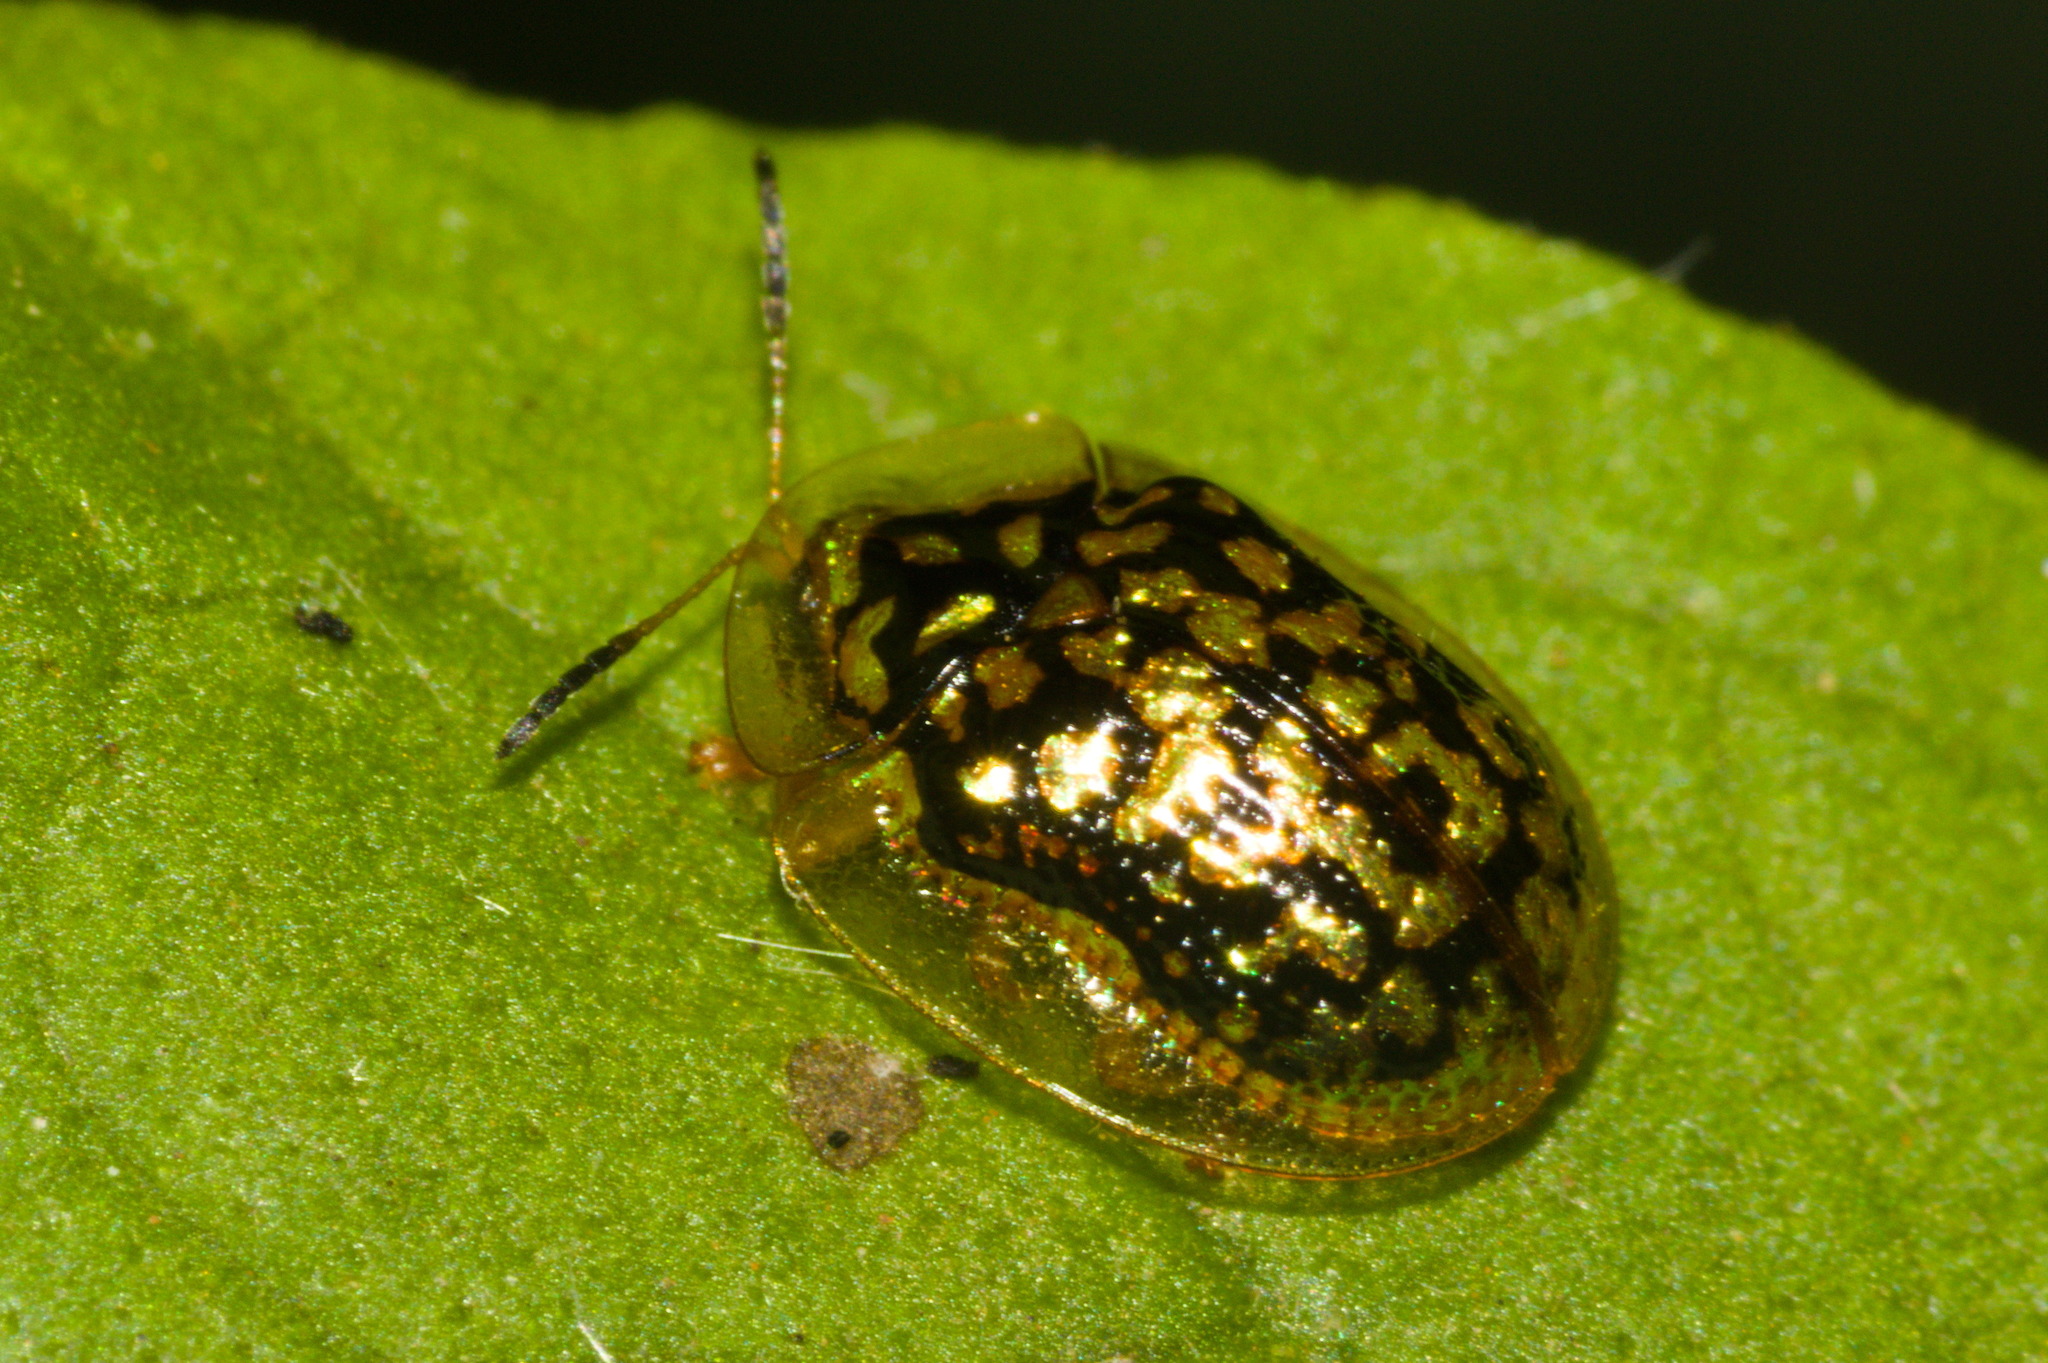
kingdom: Animalia
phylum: Arthropoda
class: Insecta
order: Coleoptera
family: Chrysomelidae
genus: Cteisella
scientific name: Cteisella confusa
